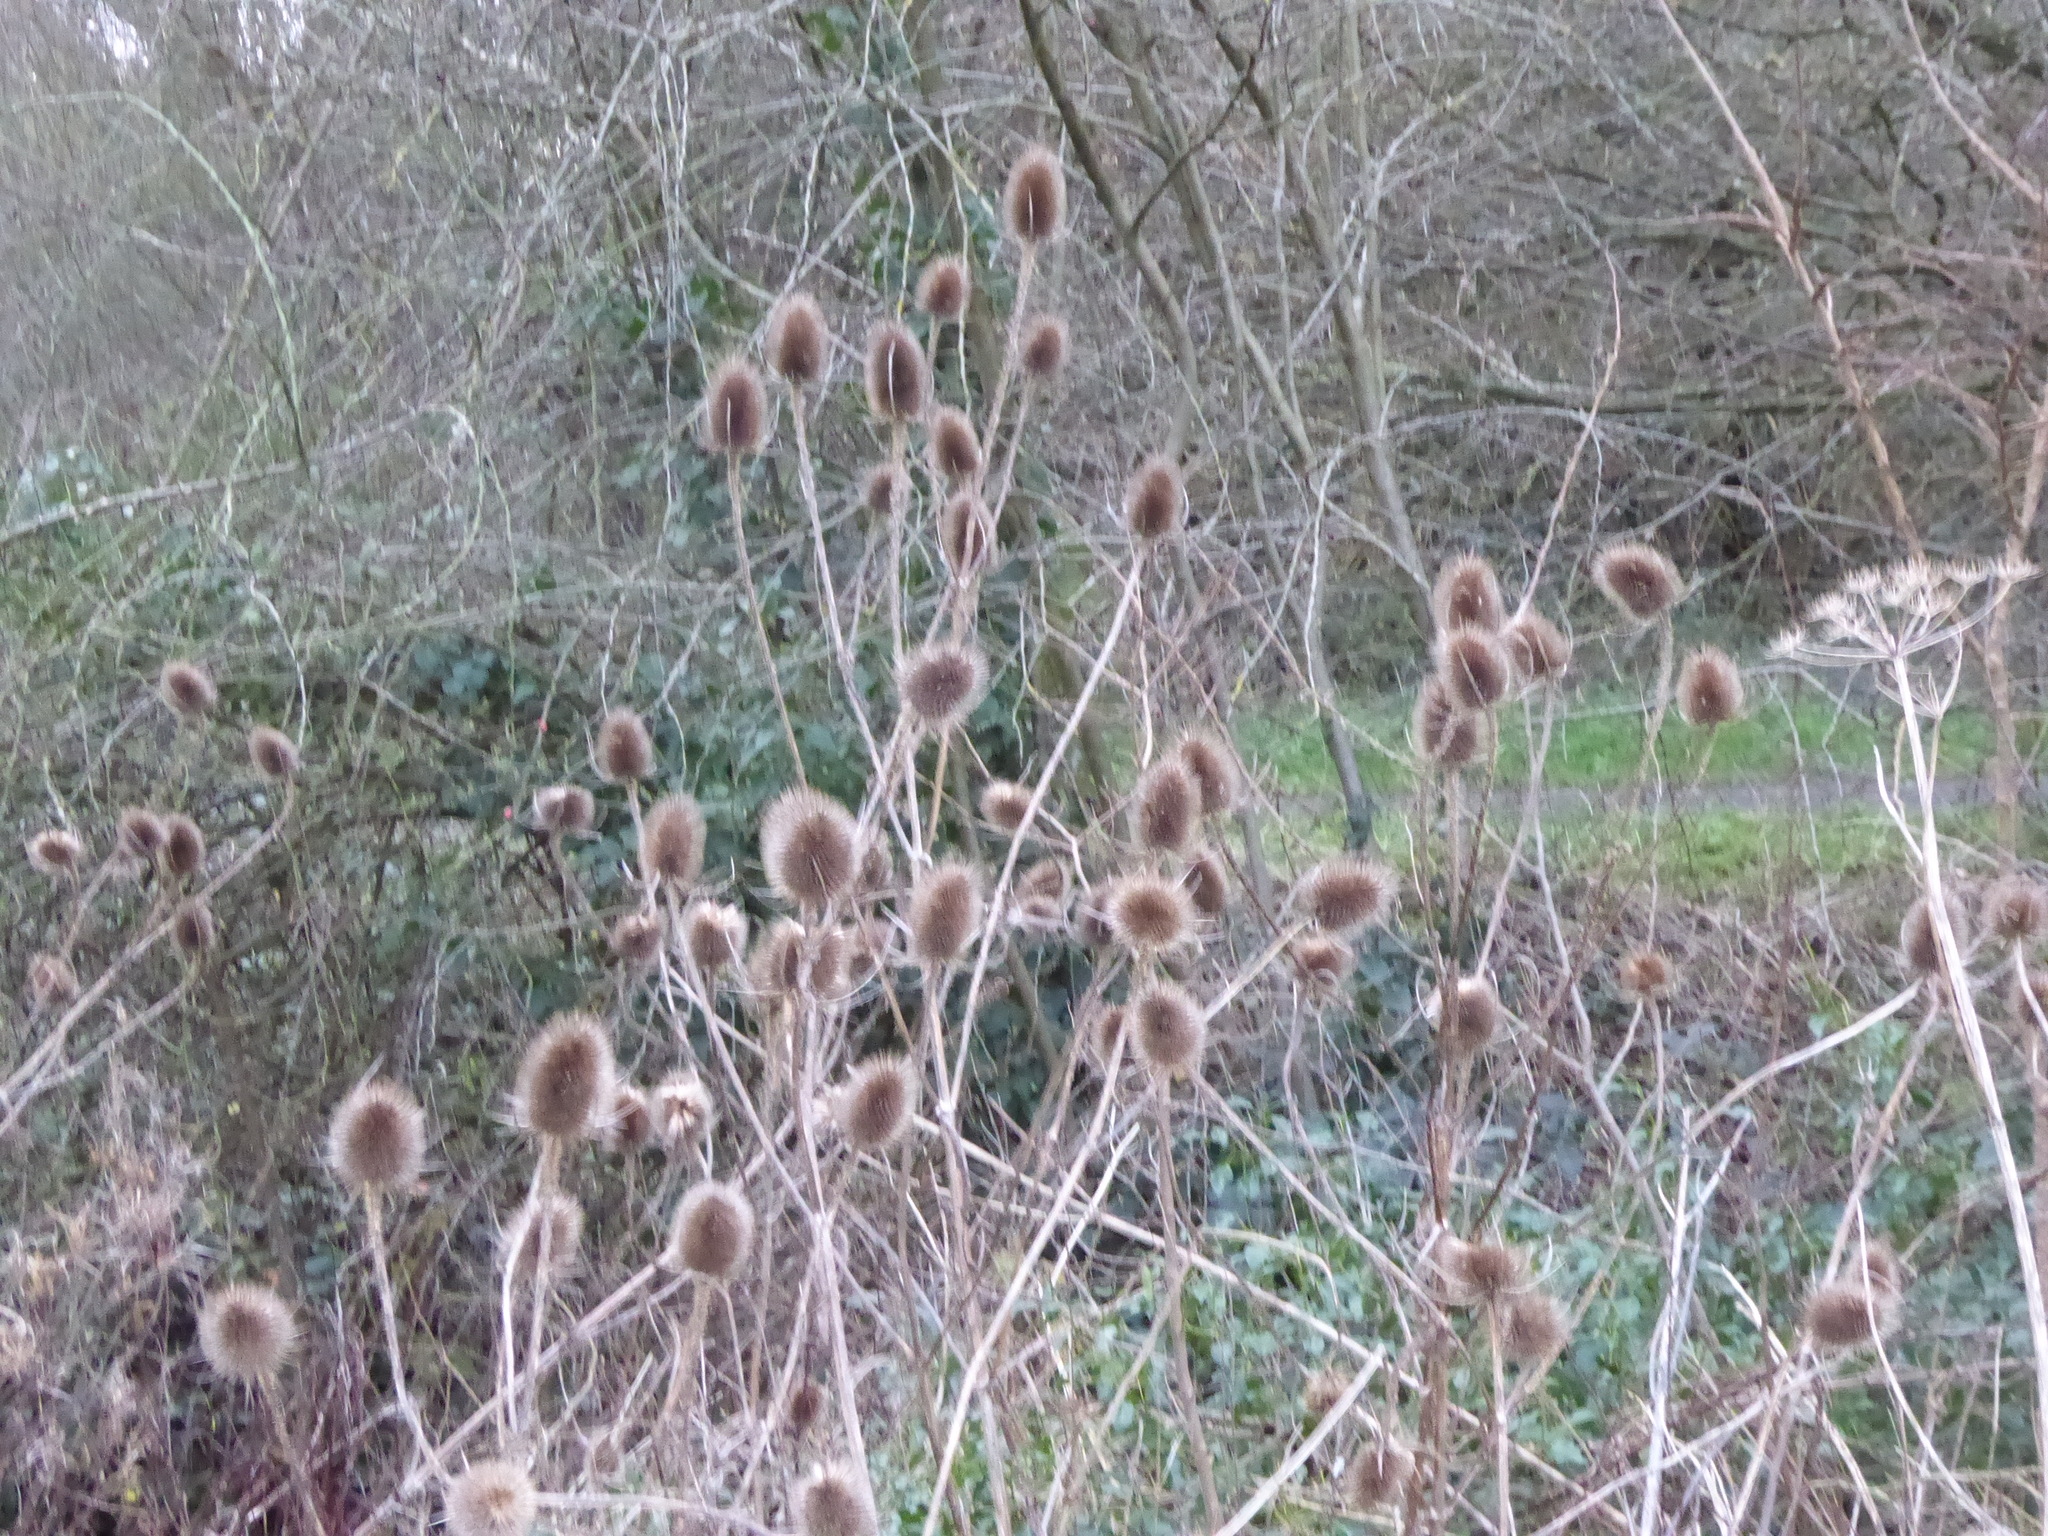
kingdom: Plantae
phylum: Tracheophyta
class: Magnoliopsida
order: Dipsacales
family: Caprifoliaceae
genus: Dipsacus
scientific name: Dipsacus fullonum
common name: Teasel
